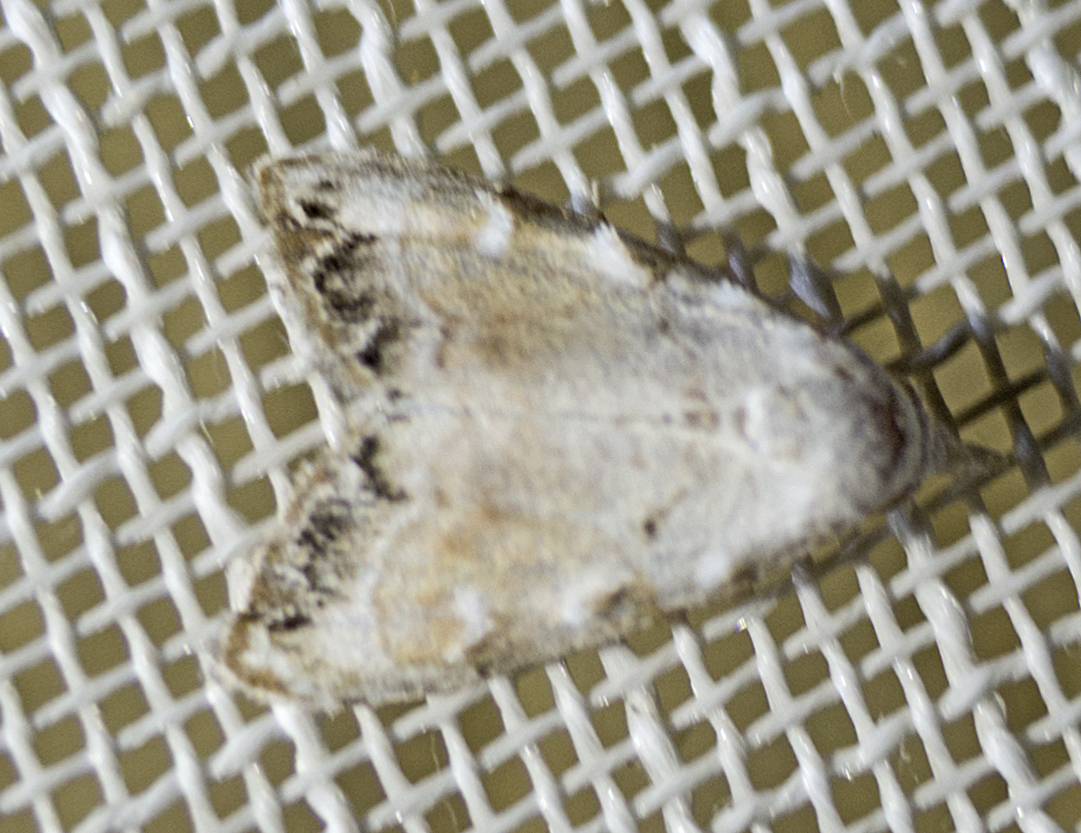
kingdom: Animalia
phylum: Arthropoda
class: Insecta
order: Lepidoptera
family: Nolidae
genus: Nola
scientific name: Nola chlamitulalis
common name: Jersey black arches
